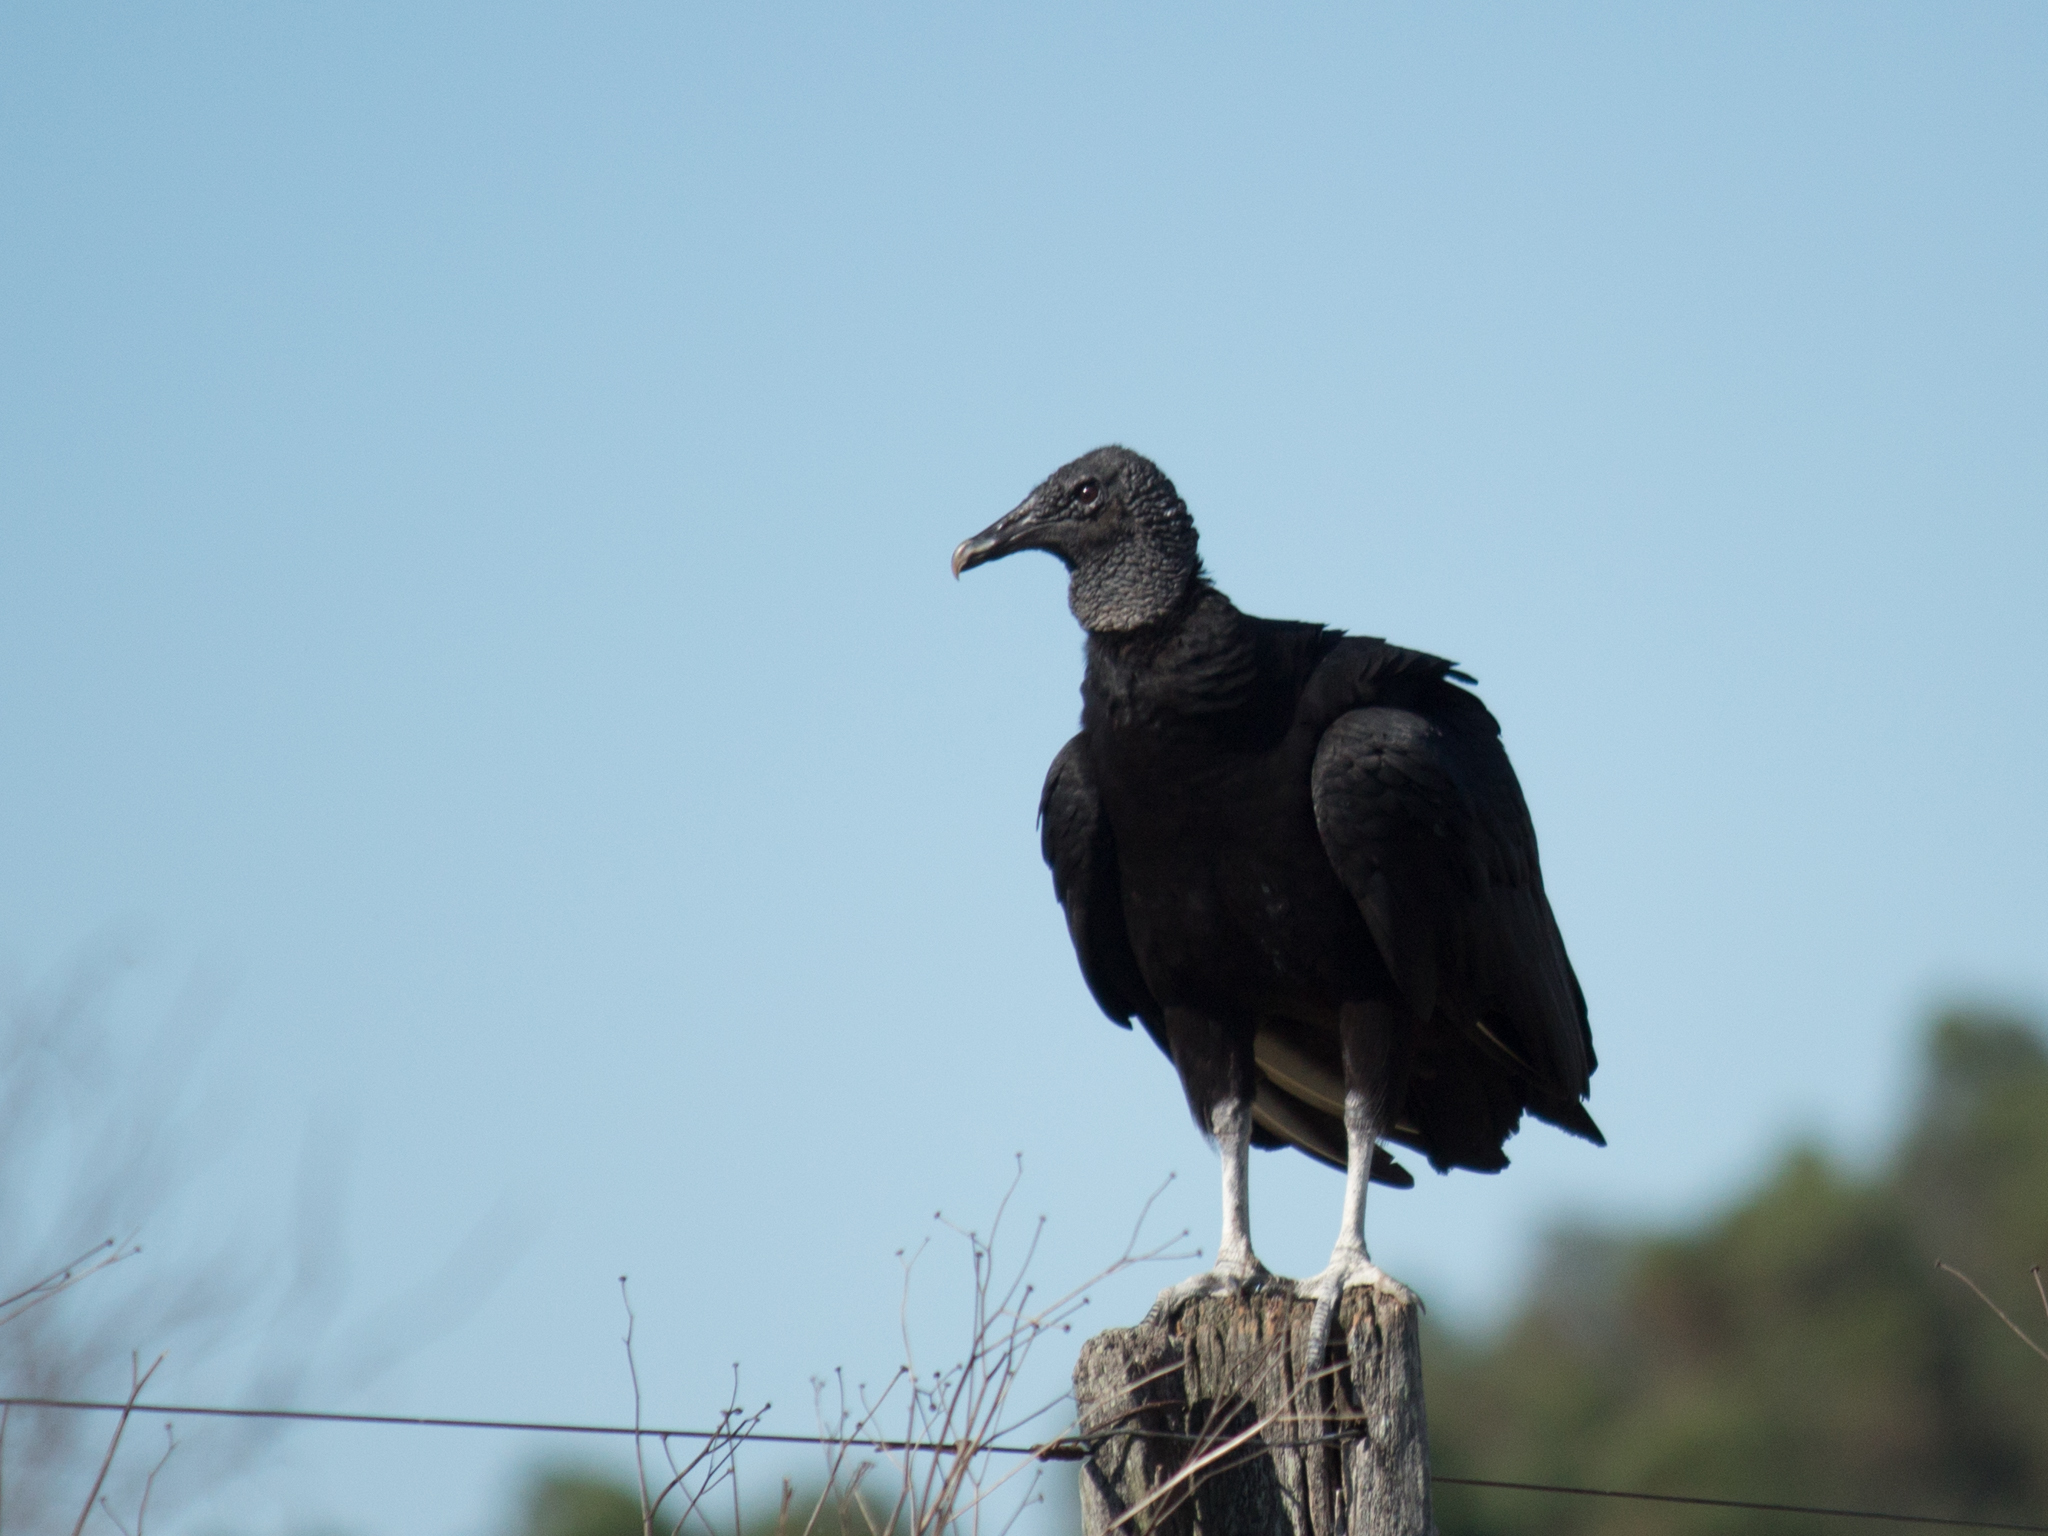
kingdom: Animalia
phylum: Chordata
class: Aves
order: Accipitriformes
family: Cathartidae
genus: Coragyps
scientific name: Coragyps atratus
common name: Black vulture
